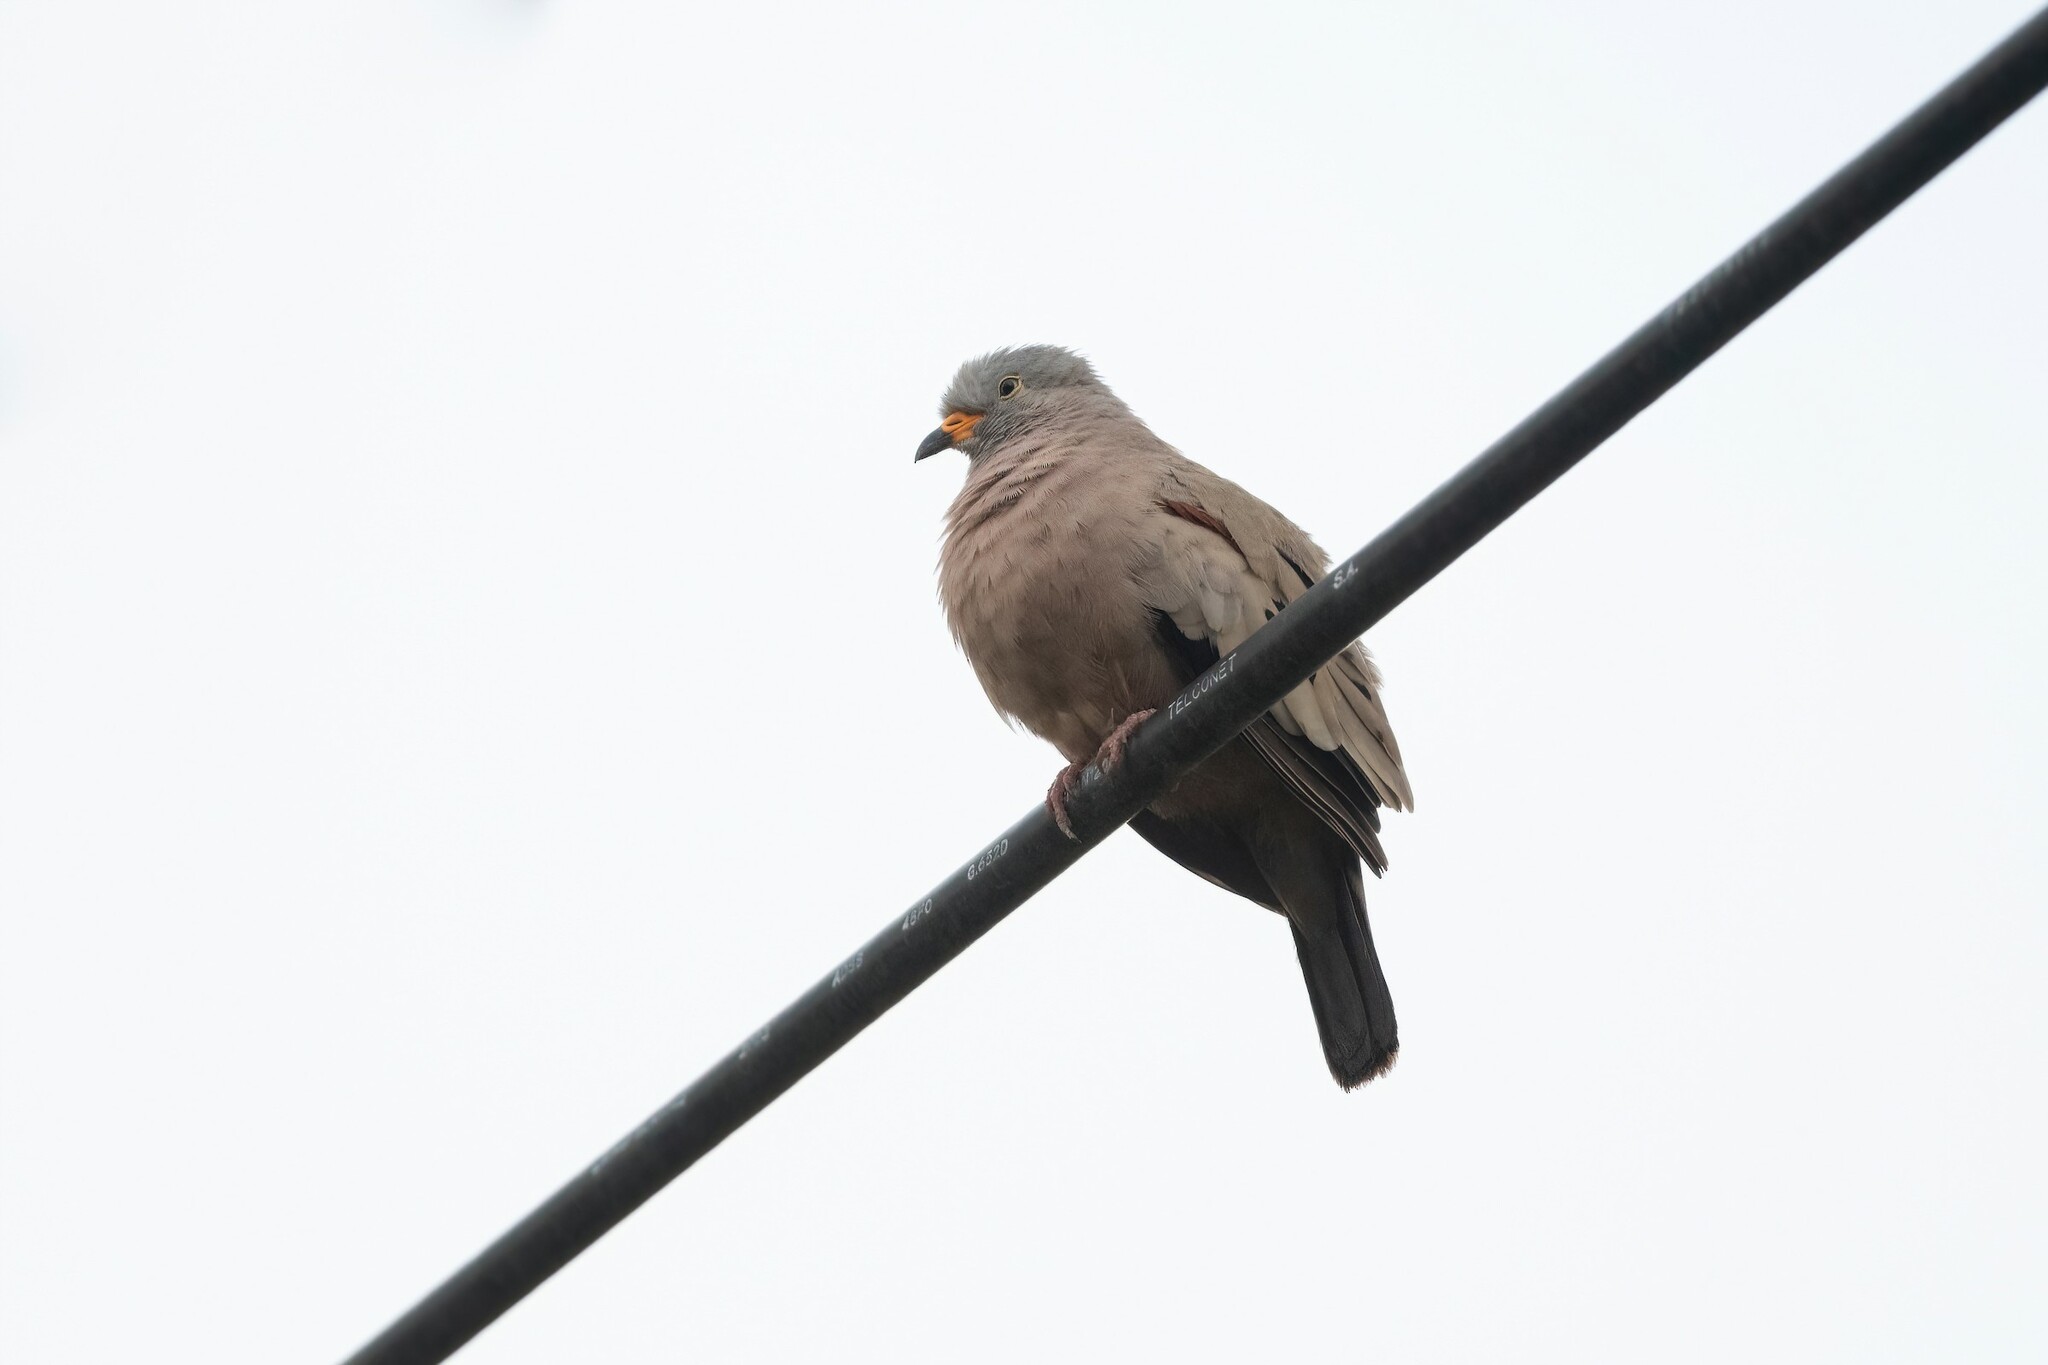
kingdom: Animalia
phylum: Chordata
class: Aves
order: Columbiformes
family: Columbidae
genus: Columbina
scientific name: Columbina cruziana
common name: Croaking ground dove
